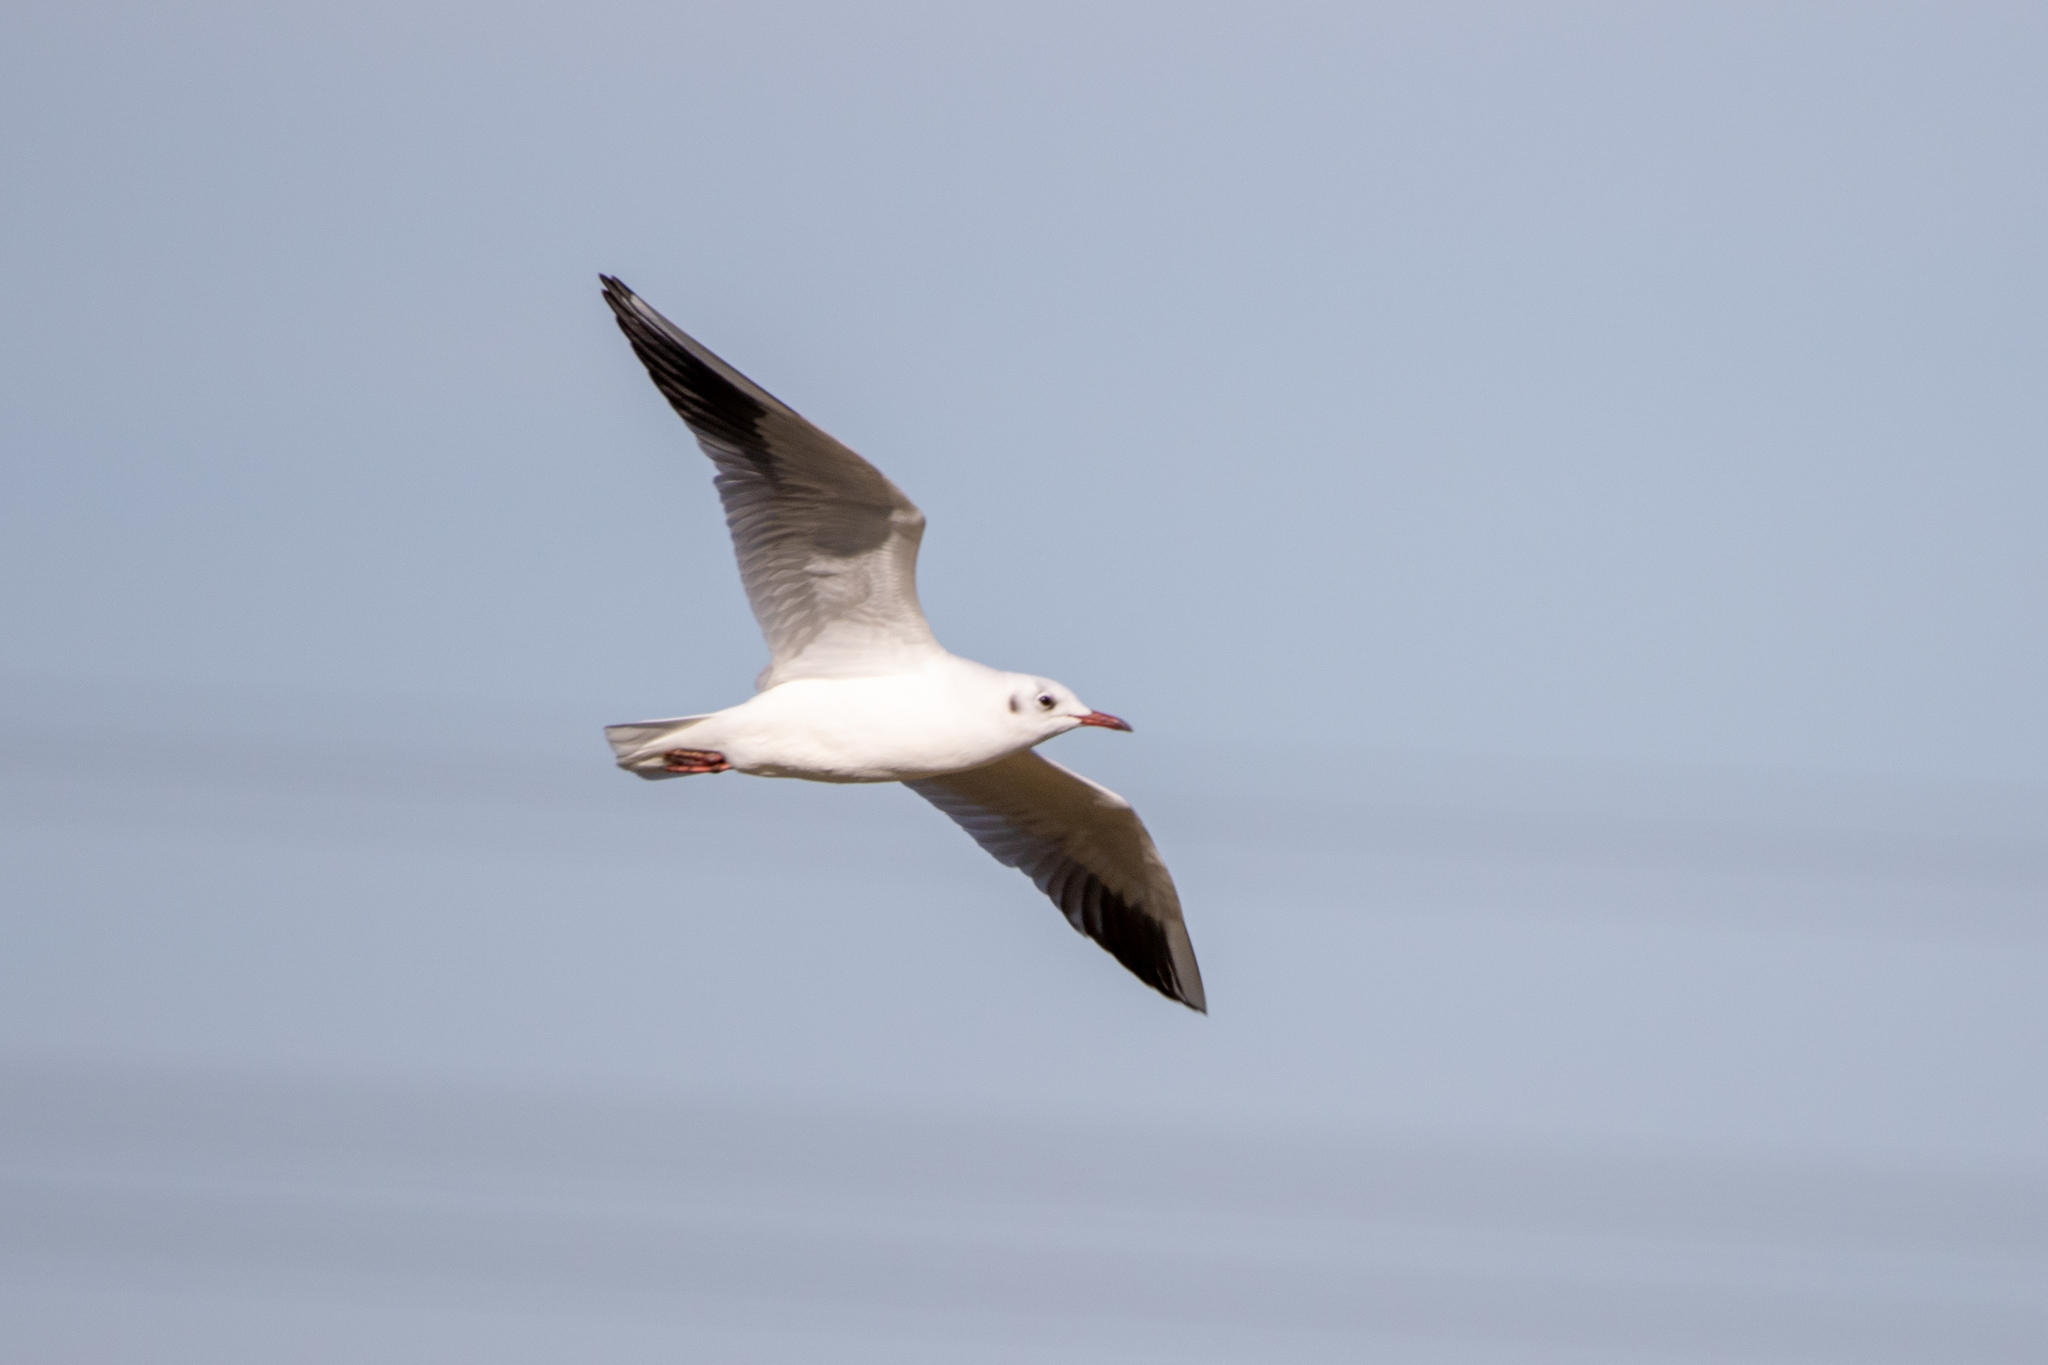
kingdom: Animalia
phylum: Chordata
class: Aves
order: Charadriiformes
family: Laridae
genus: Chroicocephalus
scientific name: Chroicocephalus ridibundus
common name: Black-headed gull
